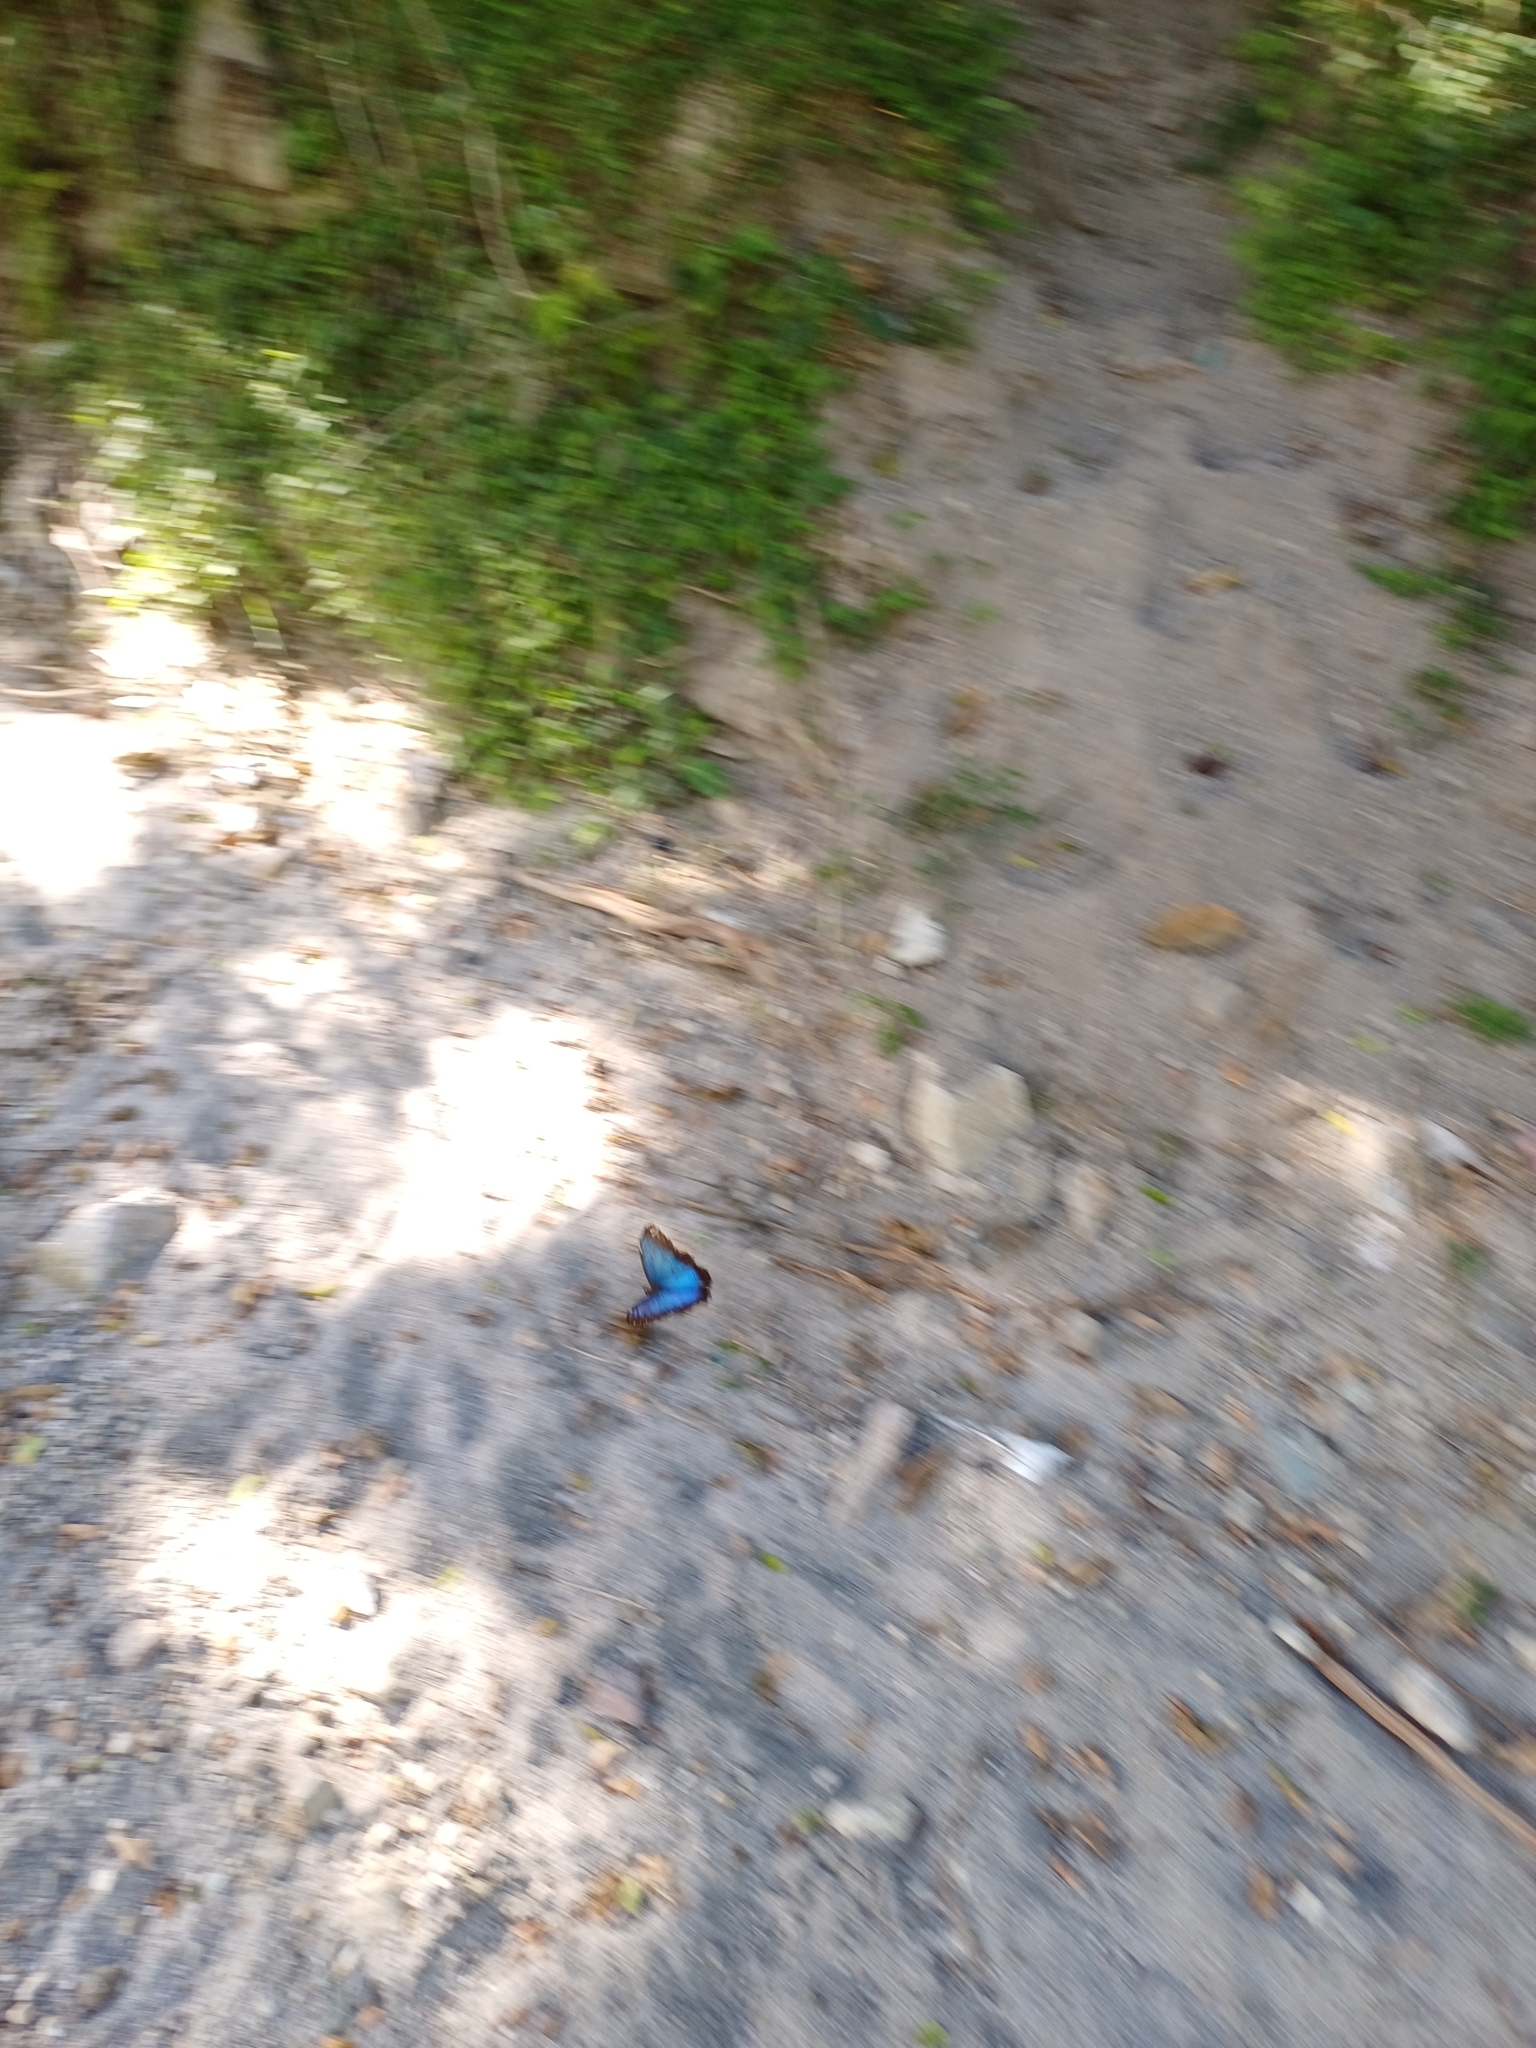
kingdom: Animalia
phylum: Arthropoda
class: Insecta
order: Lepidoptera
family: Nymphalidae
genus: Morpho
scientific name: Morpho helenor
